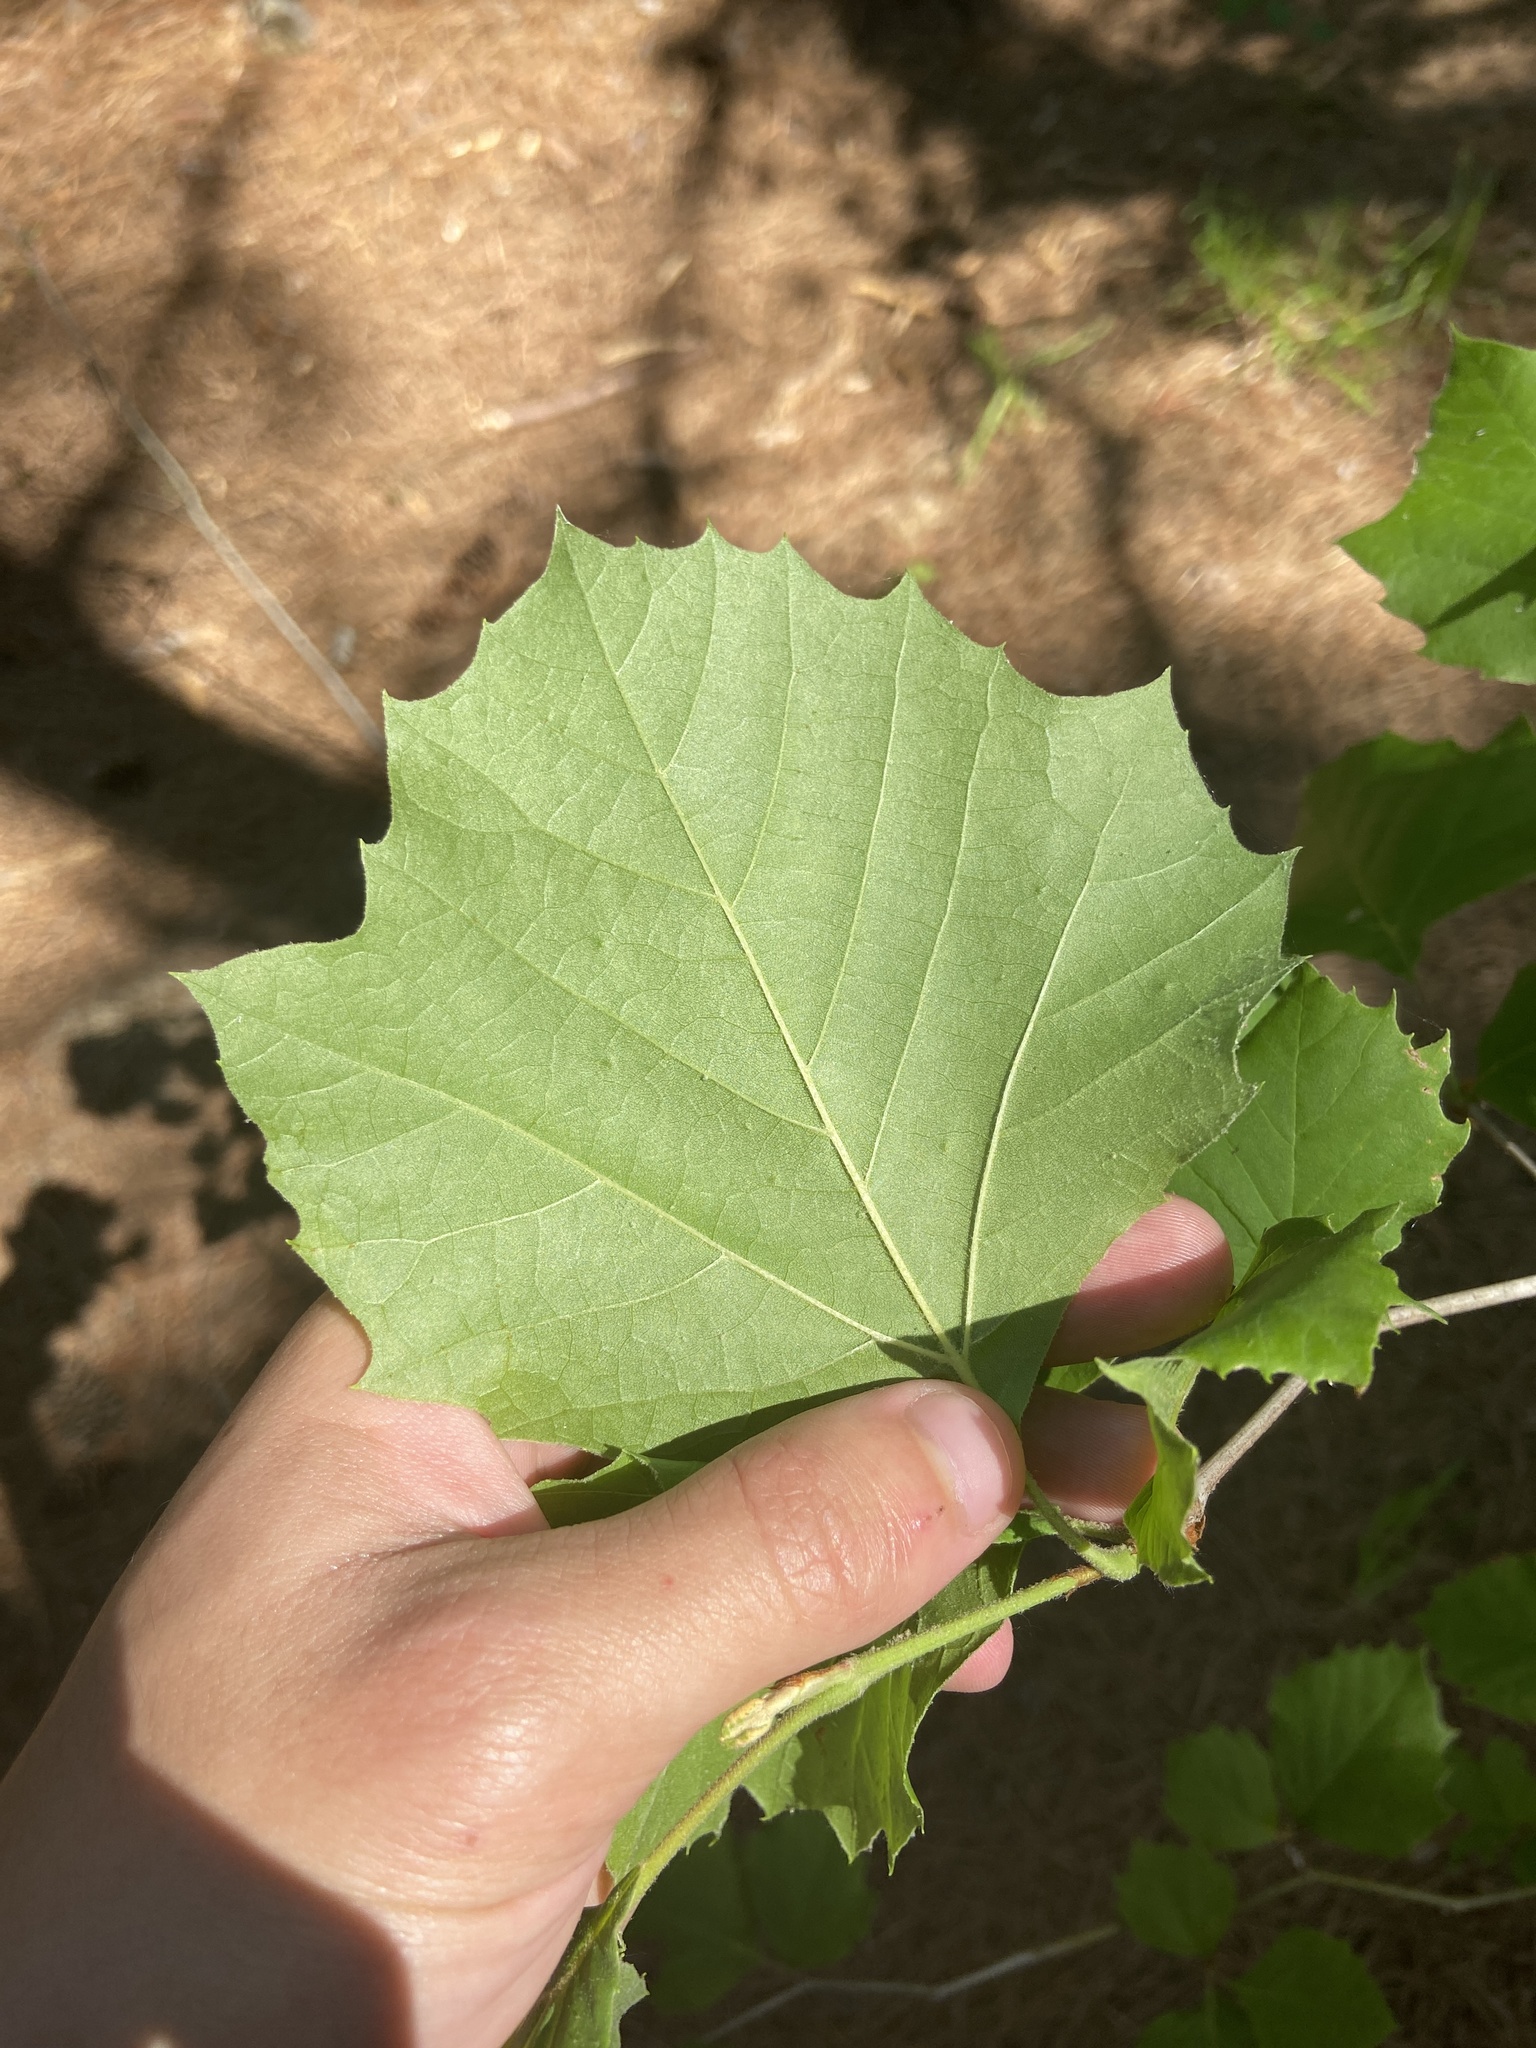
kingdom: Plantae
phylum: Tracheophyta
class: Magnoliopsida
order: Proteales
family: Platanaceae
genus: Platanus
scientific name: Platanus occidentalis
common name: American sycamore
